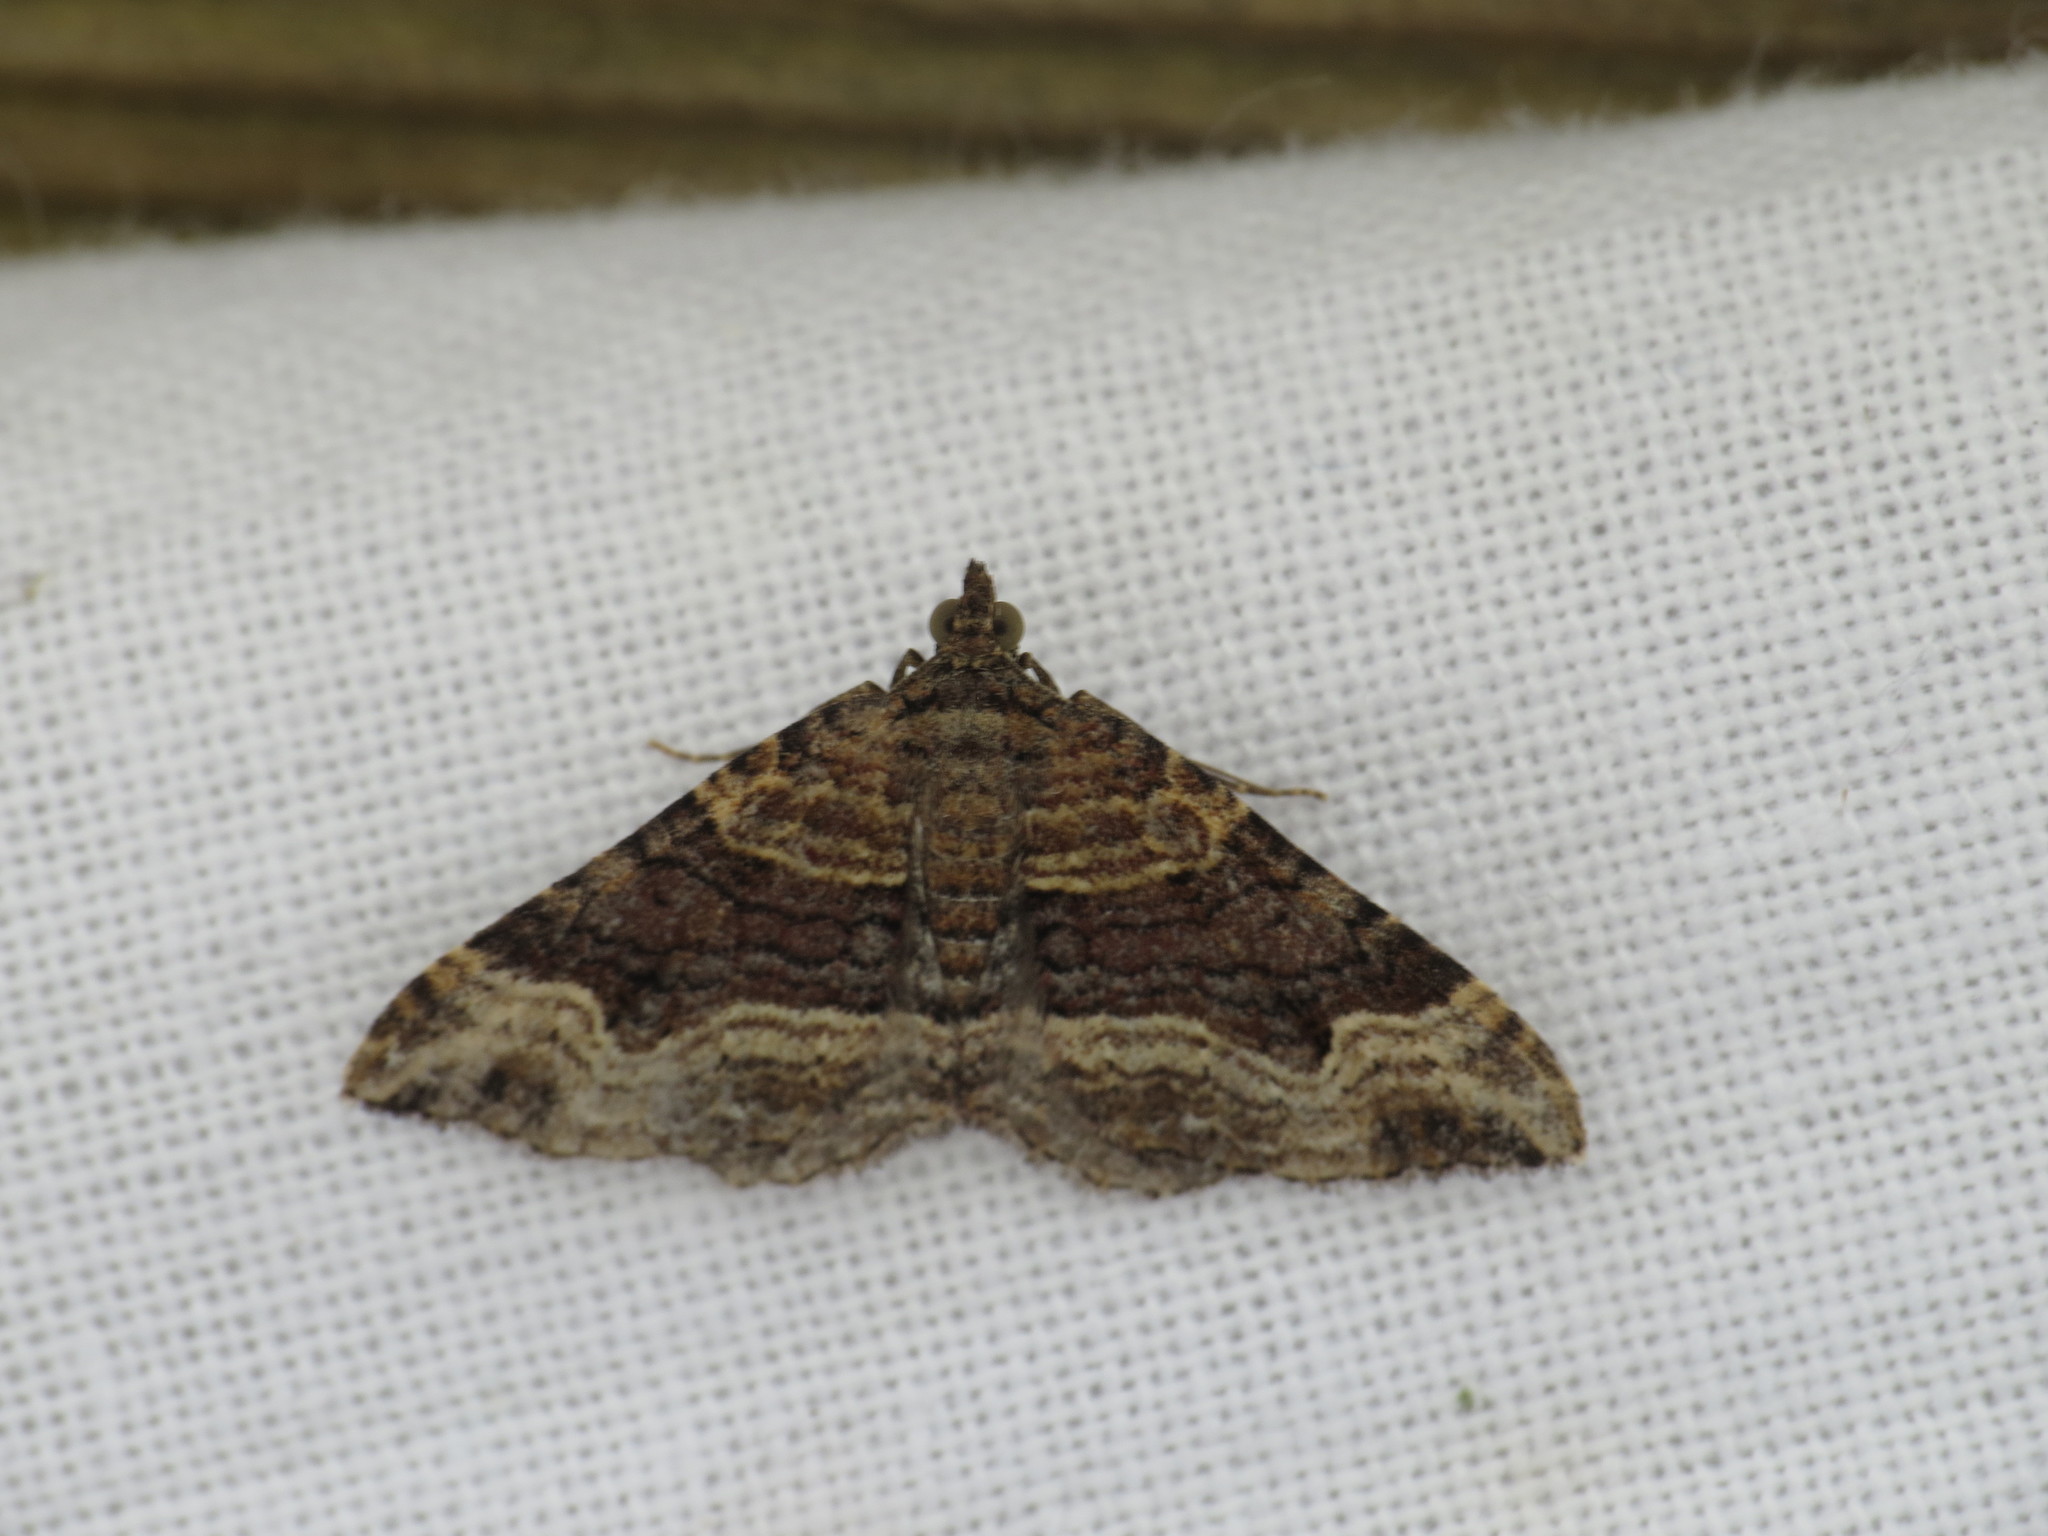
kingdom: Animalia
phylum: Arthropoda
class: Insecta
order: Lepidoptera
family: Geometridae
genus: Epyaxa
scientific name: Epyaxa subidaria
